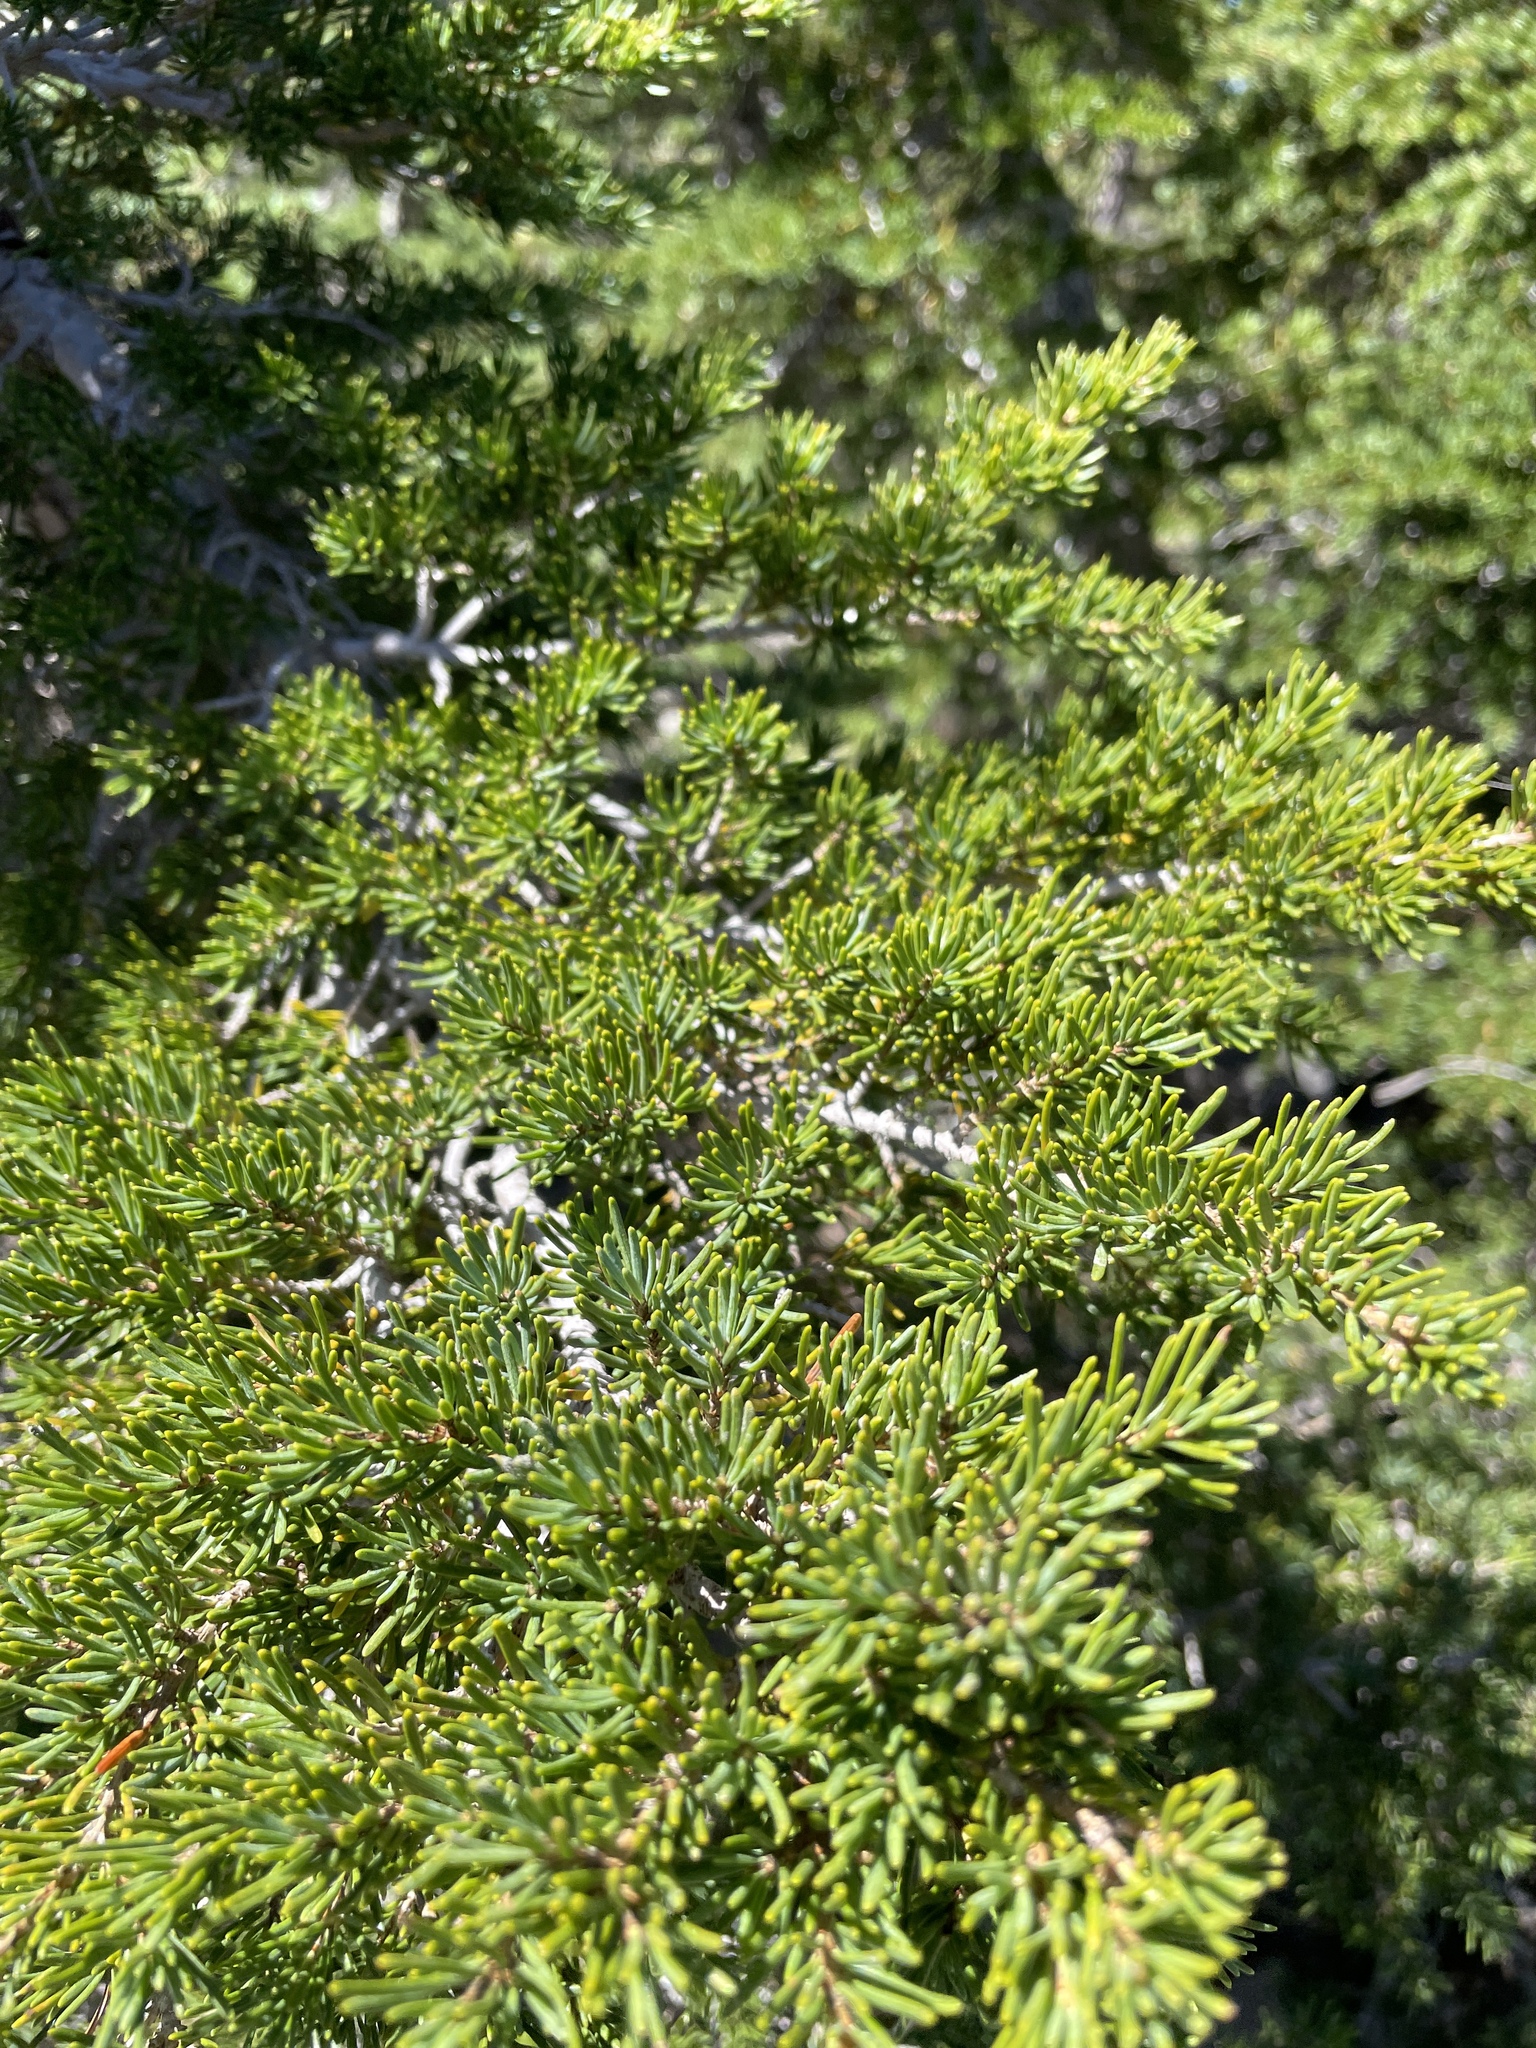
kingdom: Plantae
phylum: Tracheophyta
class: Pinopsida
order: Pinales
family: Pinaceae
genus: Tsuga
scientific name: Tsuga mertensiana
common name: Mountain hemlock
